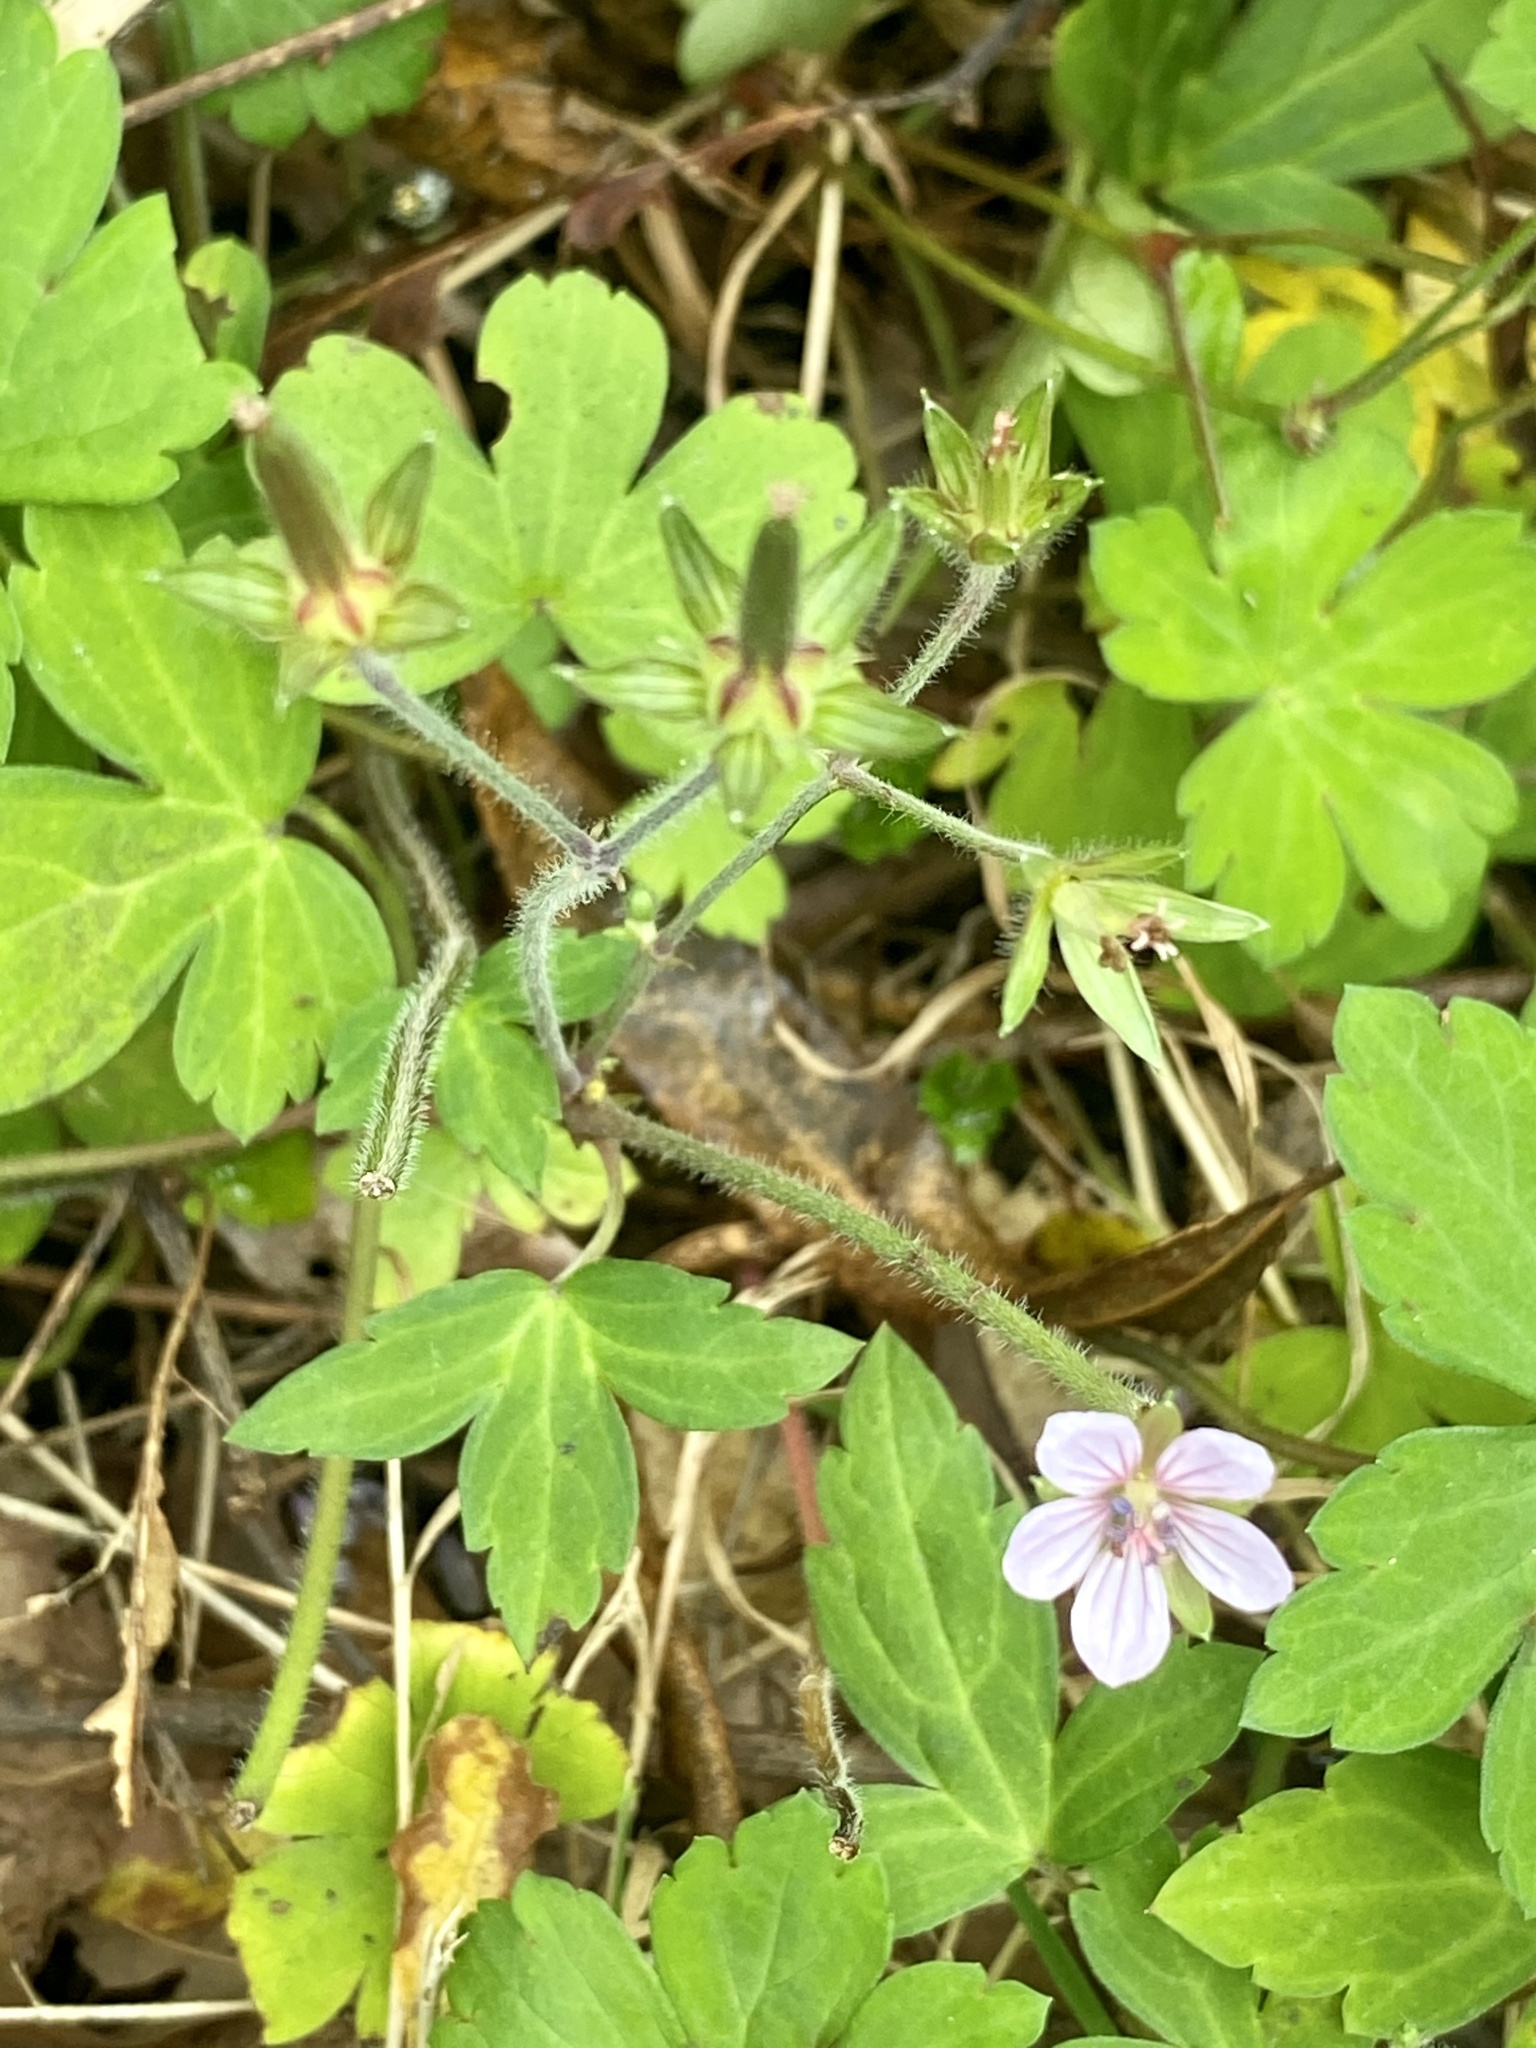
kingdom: Plantae
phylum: Tracheophyta
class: Magnoliopsida
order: Geraniales
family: Geraniaceae
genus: Geranium
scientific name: Geranium thunbergii
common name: Dewdrop crane's-bill
